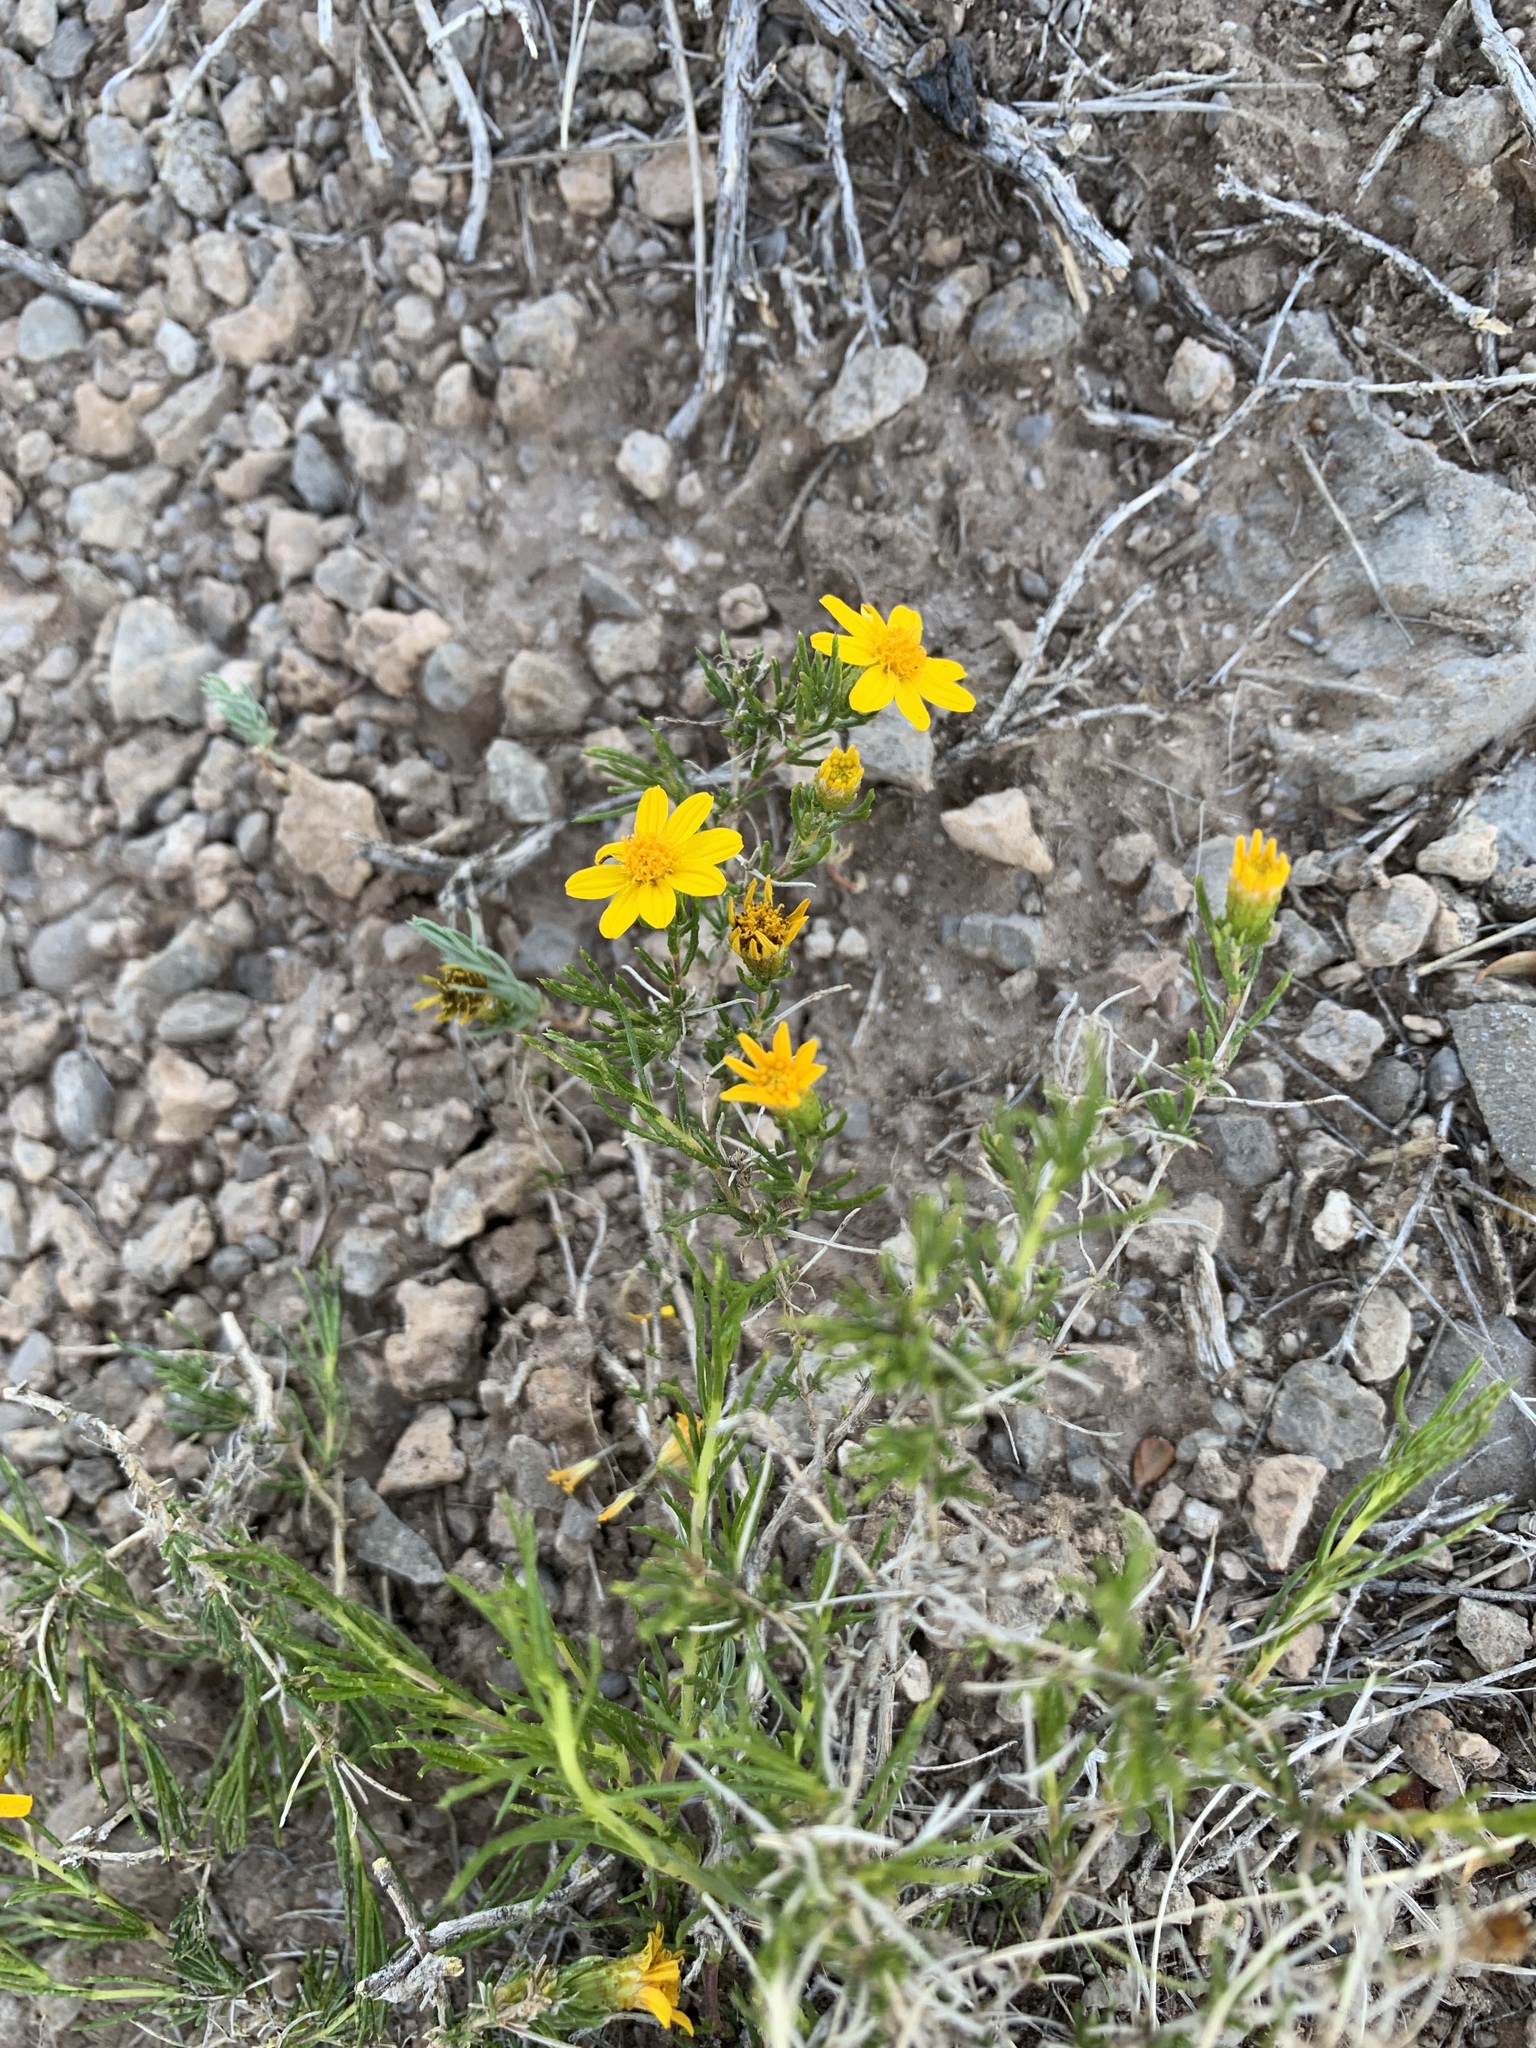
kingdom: Plantae
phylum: Tracheophyta
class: Magnoliopsida
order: Asterales
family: Asteraceae
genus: Thymophylla
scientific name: Thymophylla acerosa
